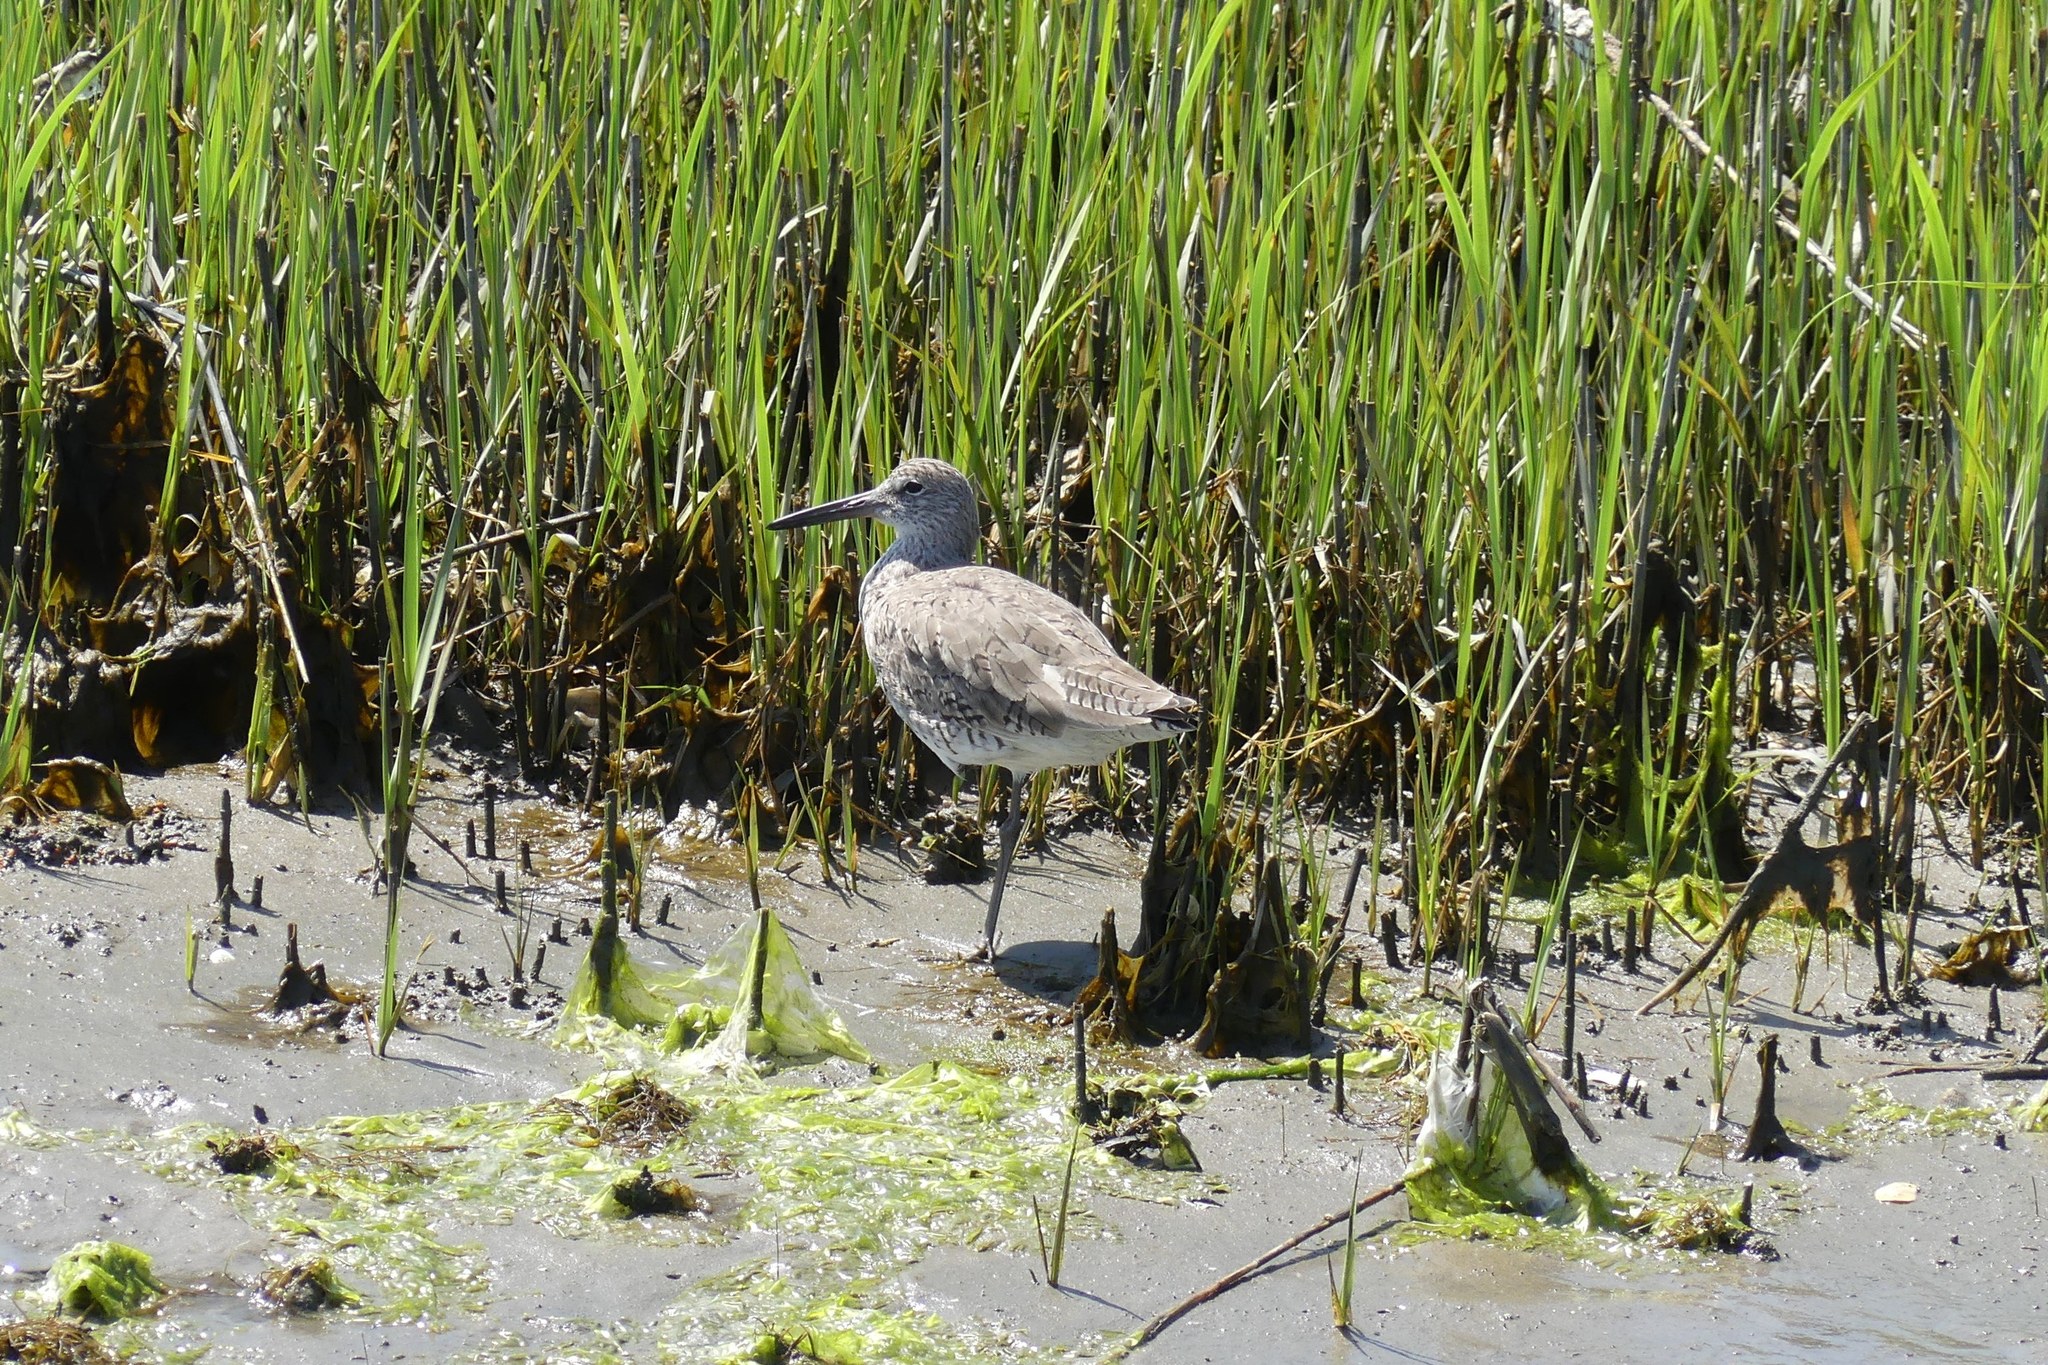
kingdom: Animalia
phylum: Chordata
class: Aves
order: Charadriiformes
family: Scolopacidae
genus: Tringa
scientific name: Tringa semipalmata
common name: Willet
